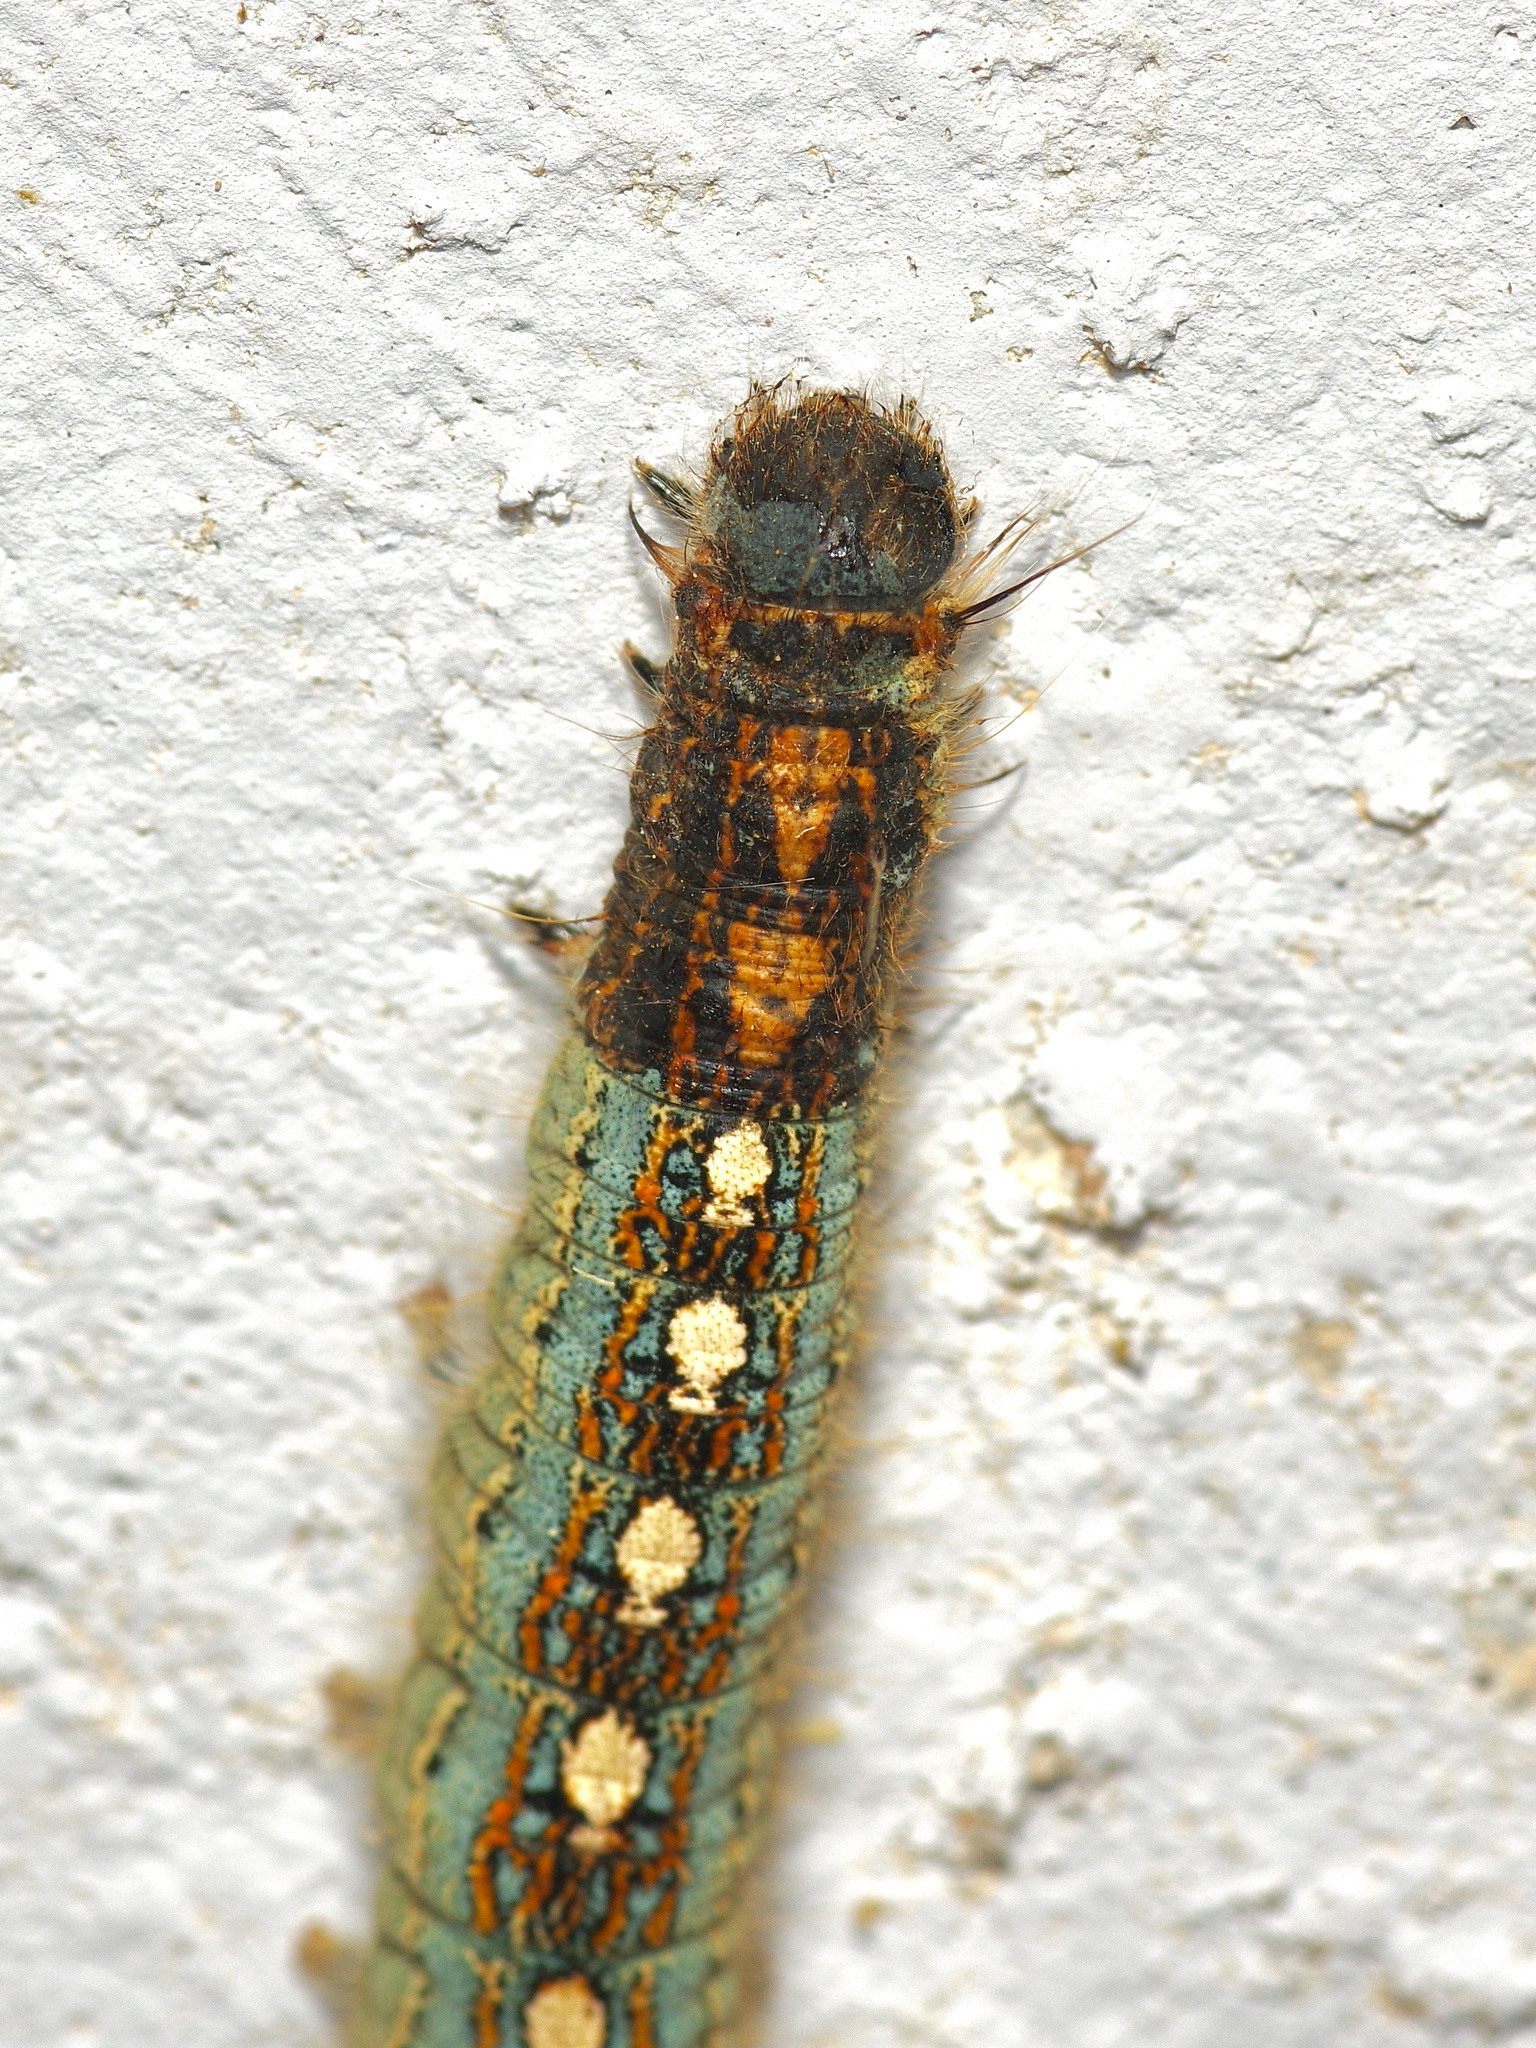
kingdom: Animalia
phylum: Arthropoda
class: Insecta
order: Lepidoptera
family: Lasiocampidae
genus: Malacosoma
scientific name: Malacosoma disstria
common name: Forest tent caterpillar
